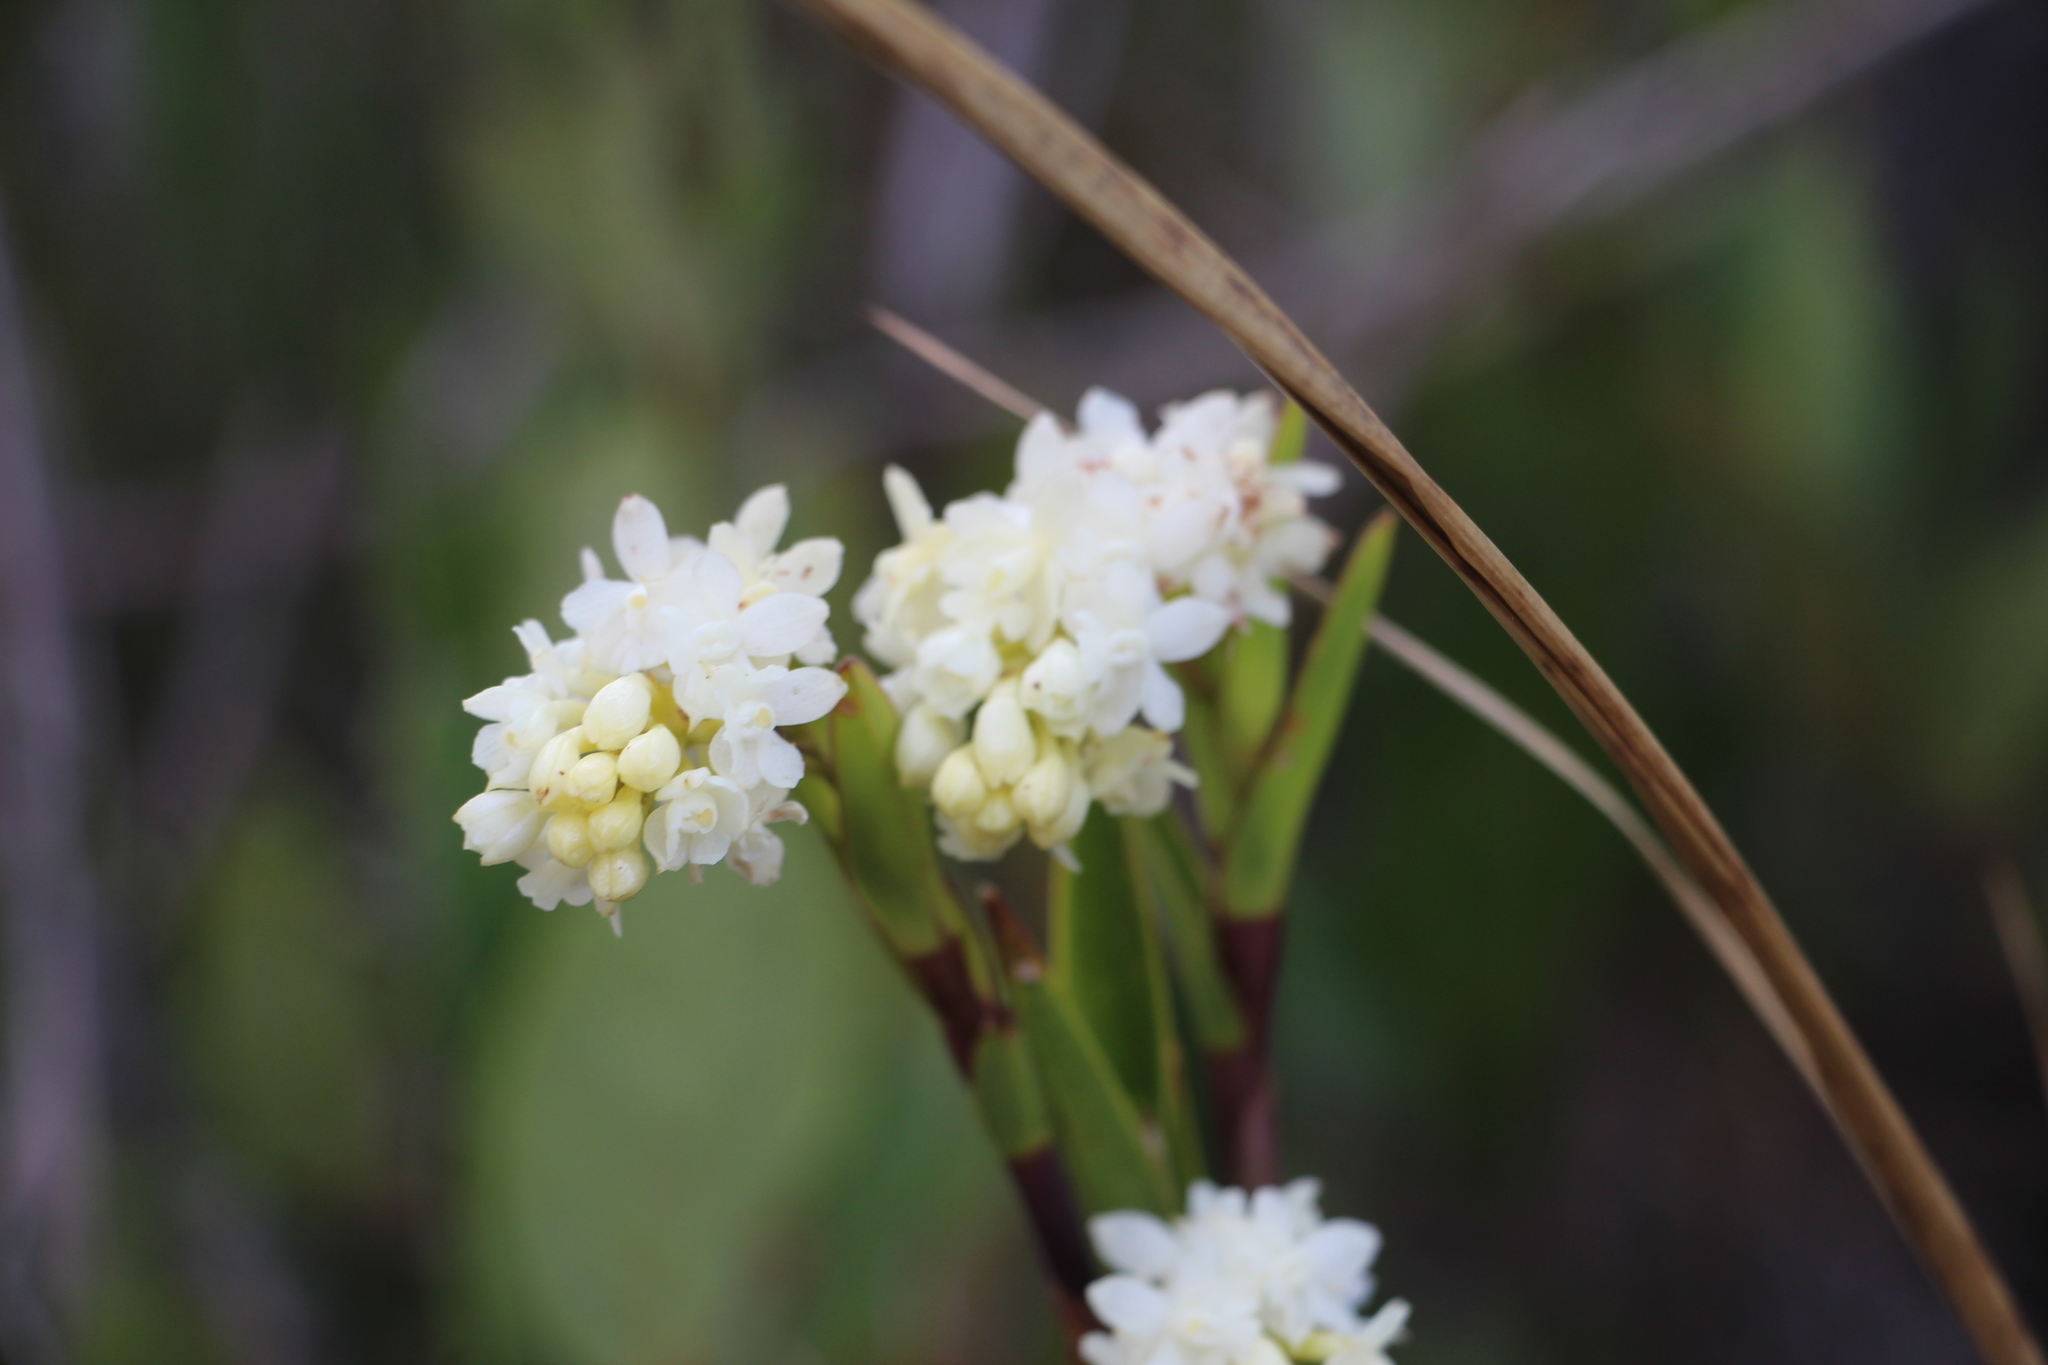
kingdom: Plantae
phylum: Tracheophyta
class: Liliopsida
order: Asparagales
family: Orchidaceae
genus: Epidendrum
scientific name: Epidendrum chioneum
